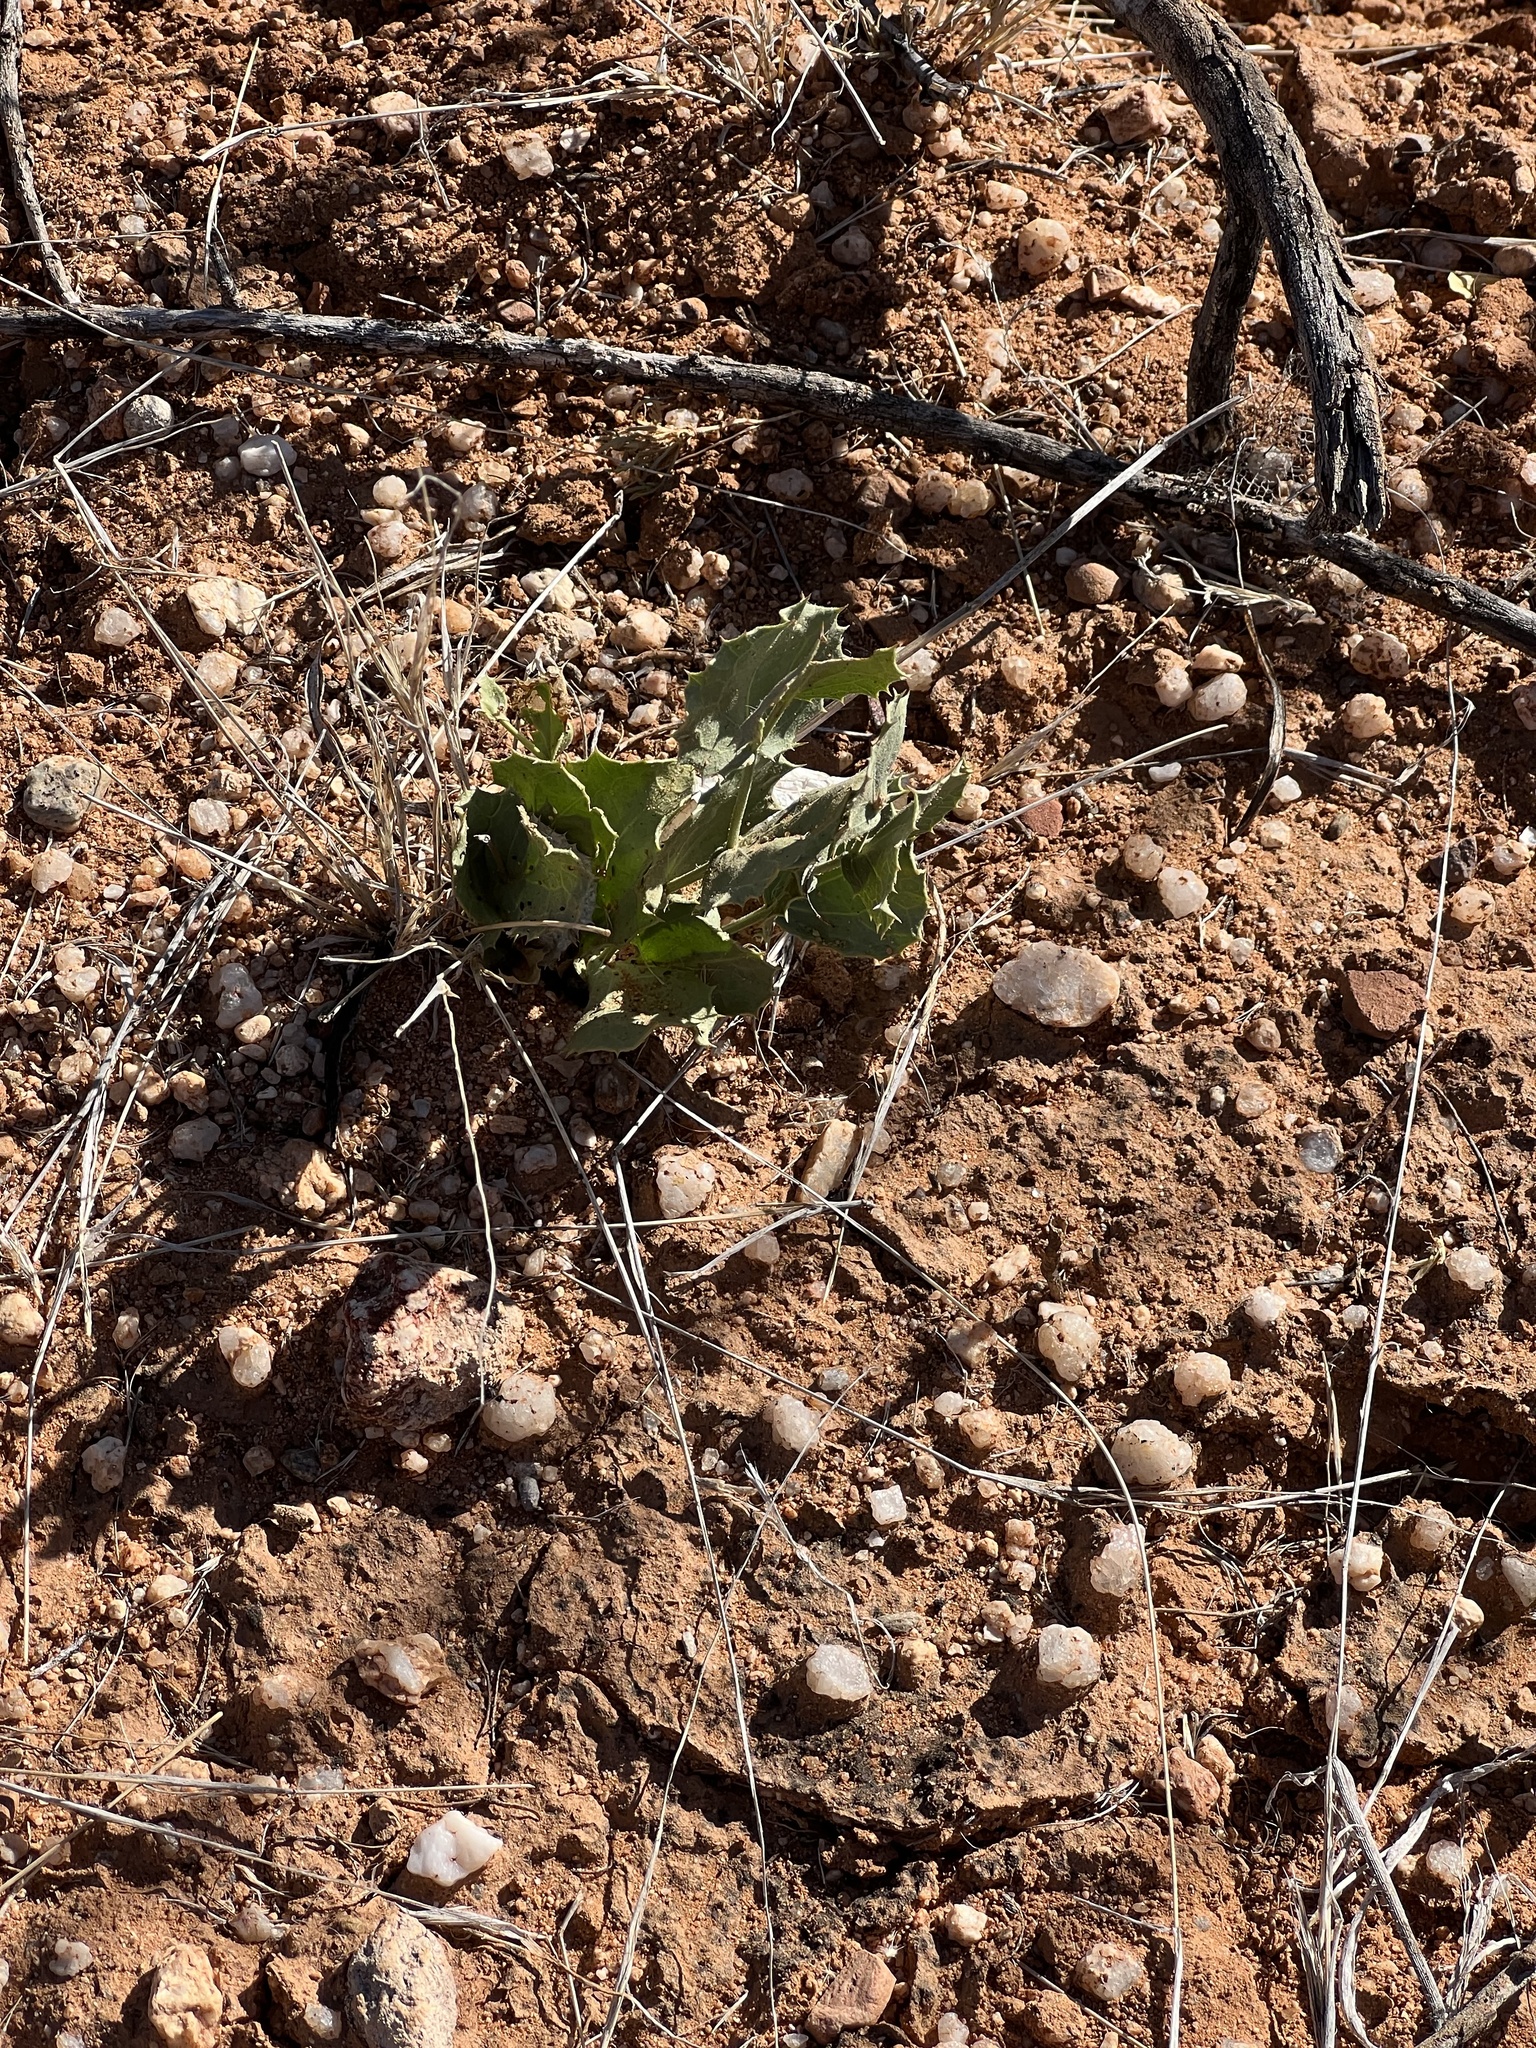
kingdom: Plantae
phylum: Tracheophyta
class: Magnoliopsida
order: Asterales
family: Asteraceae
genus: Acourtia
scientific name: Acourtia nana
